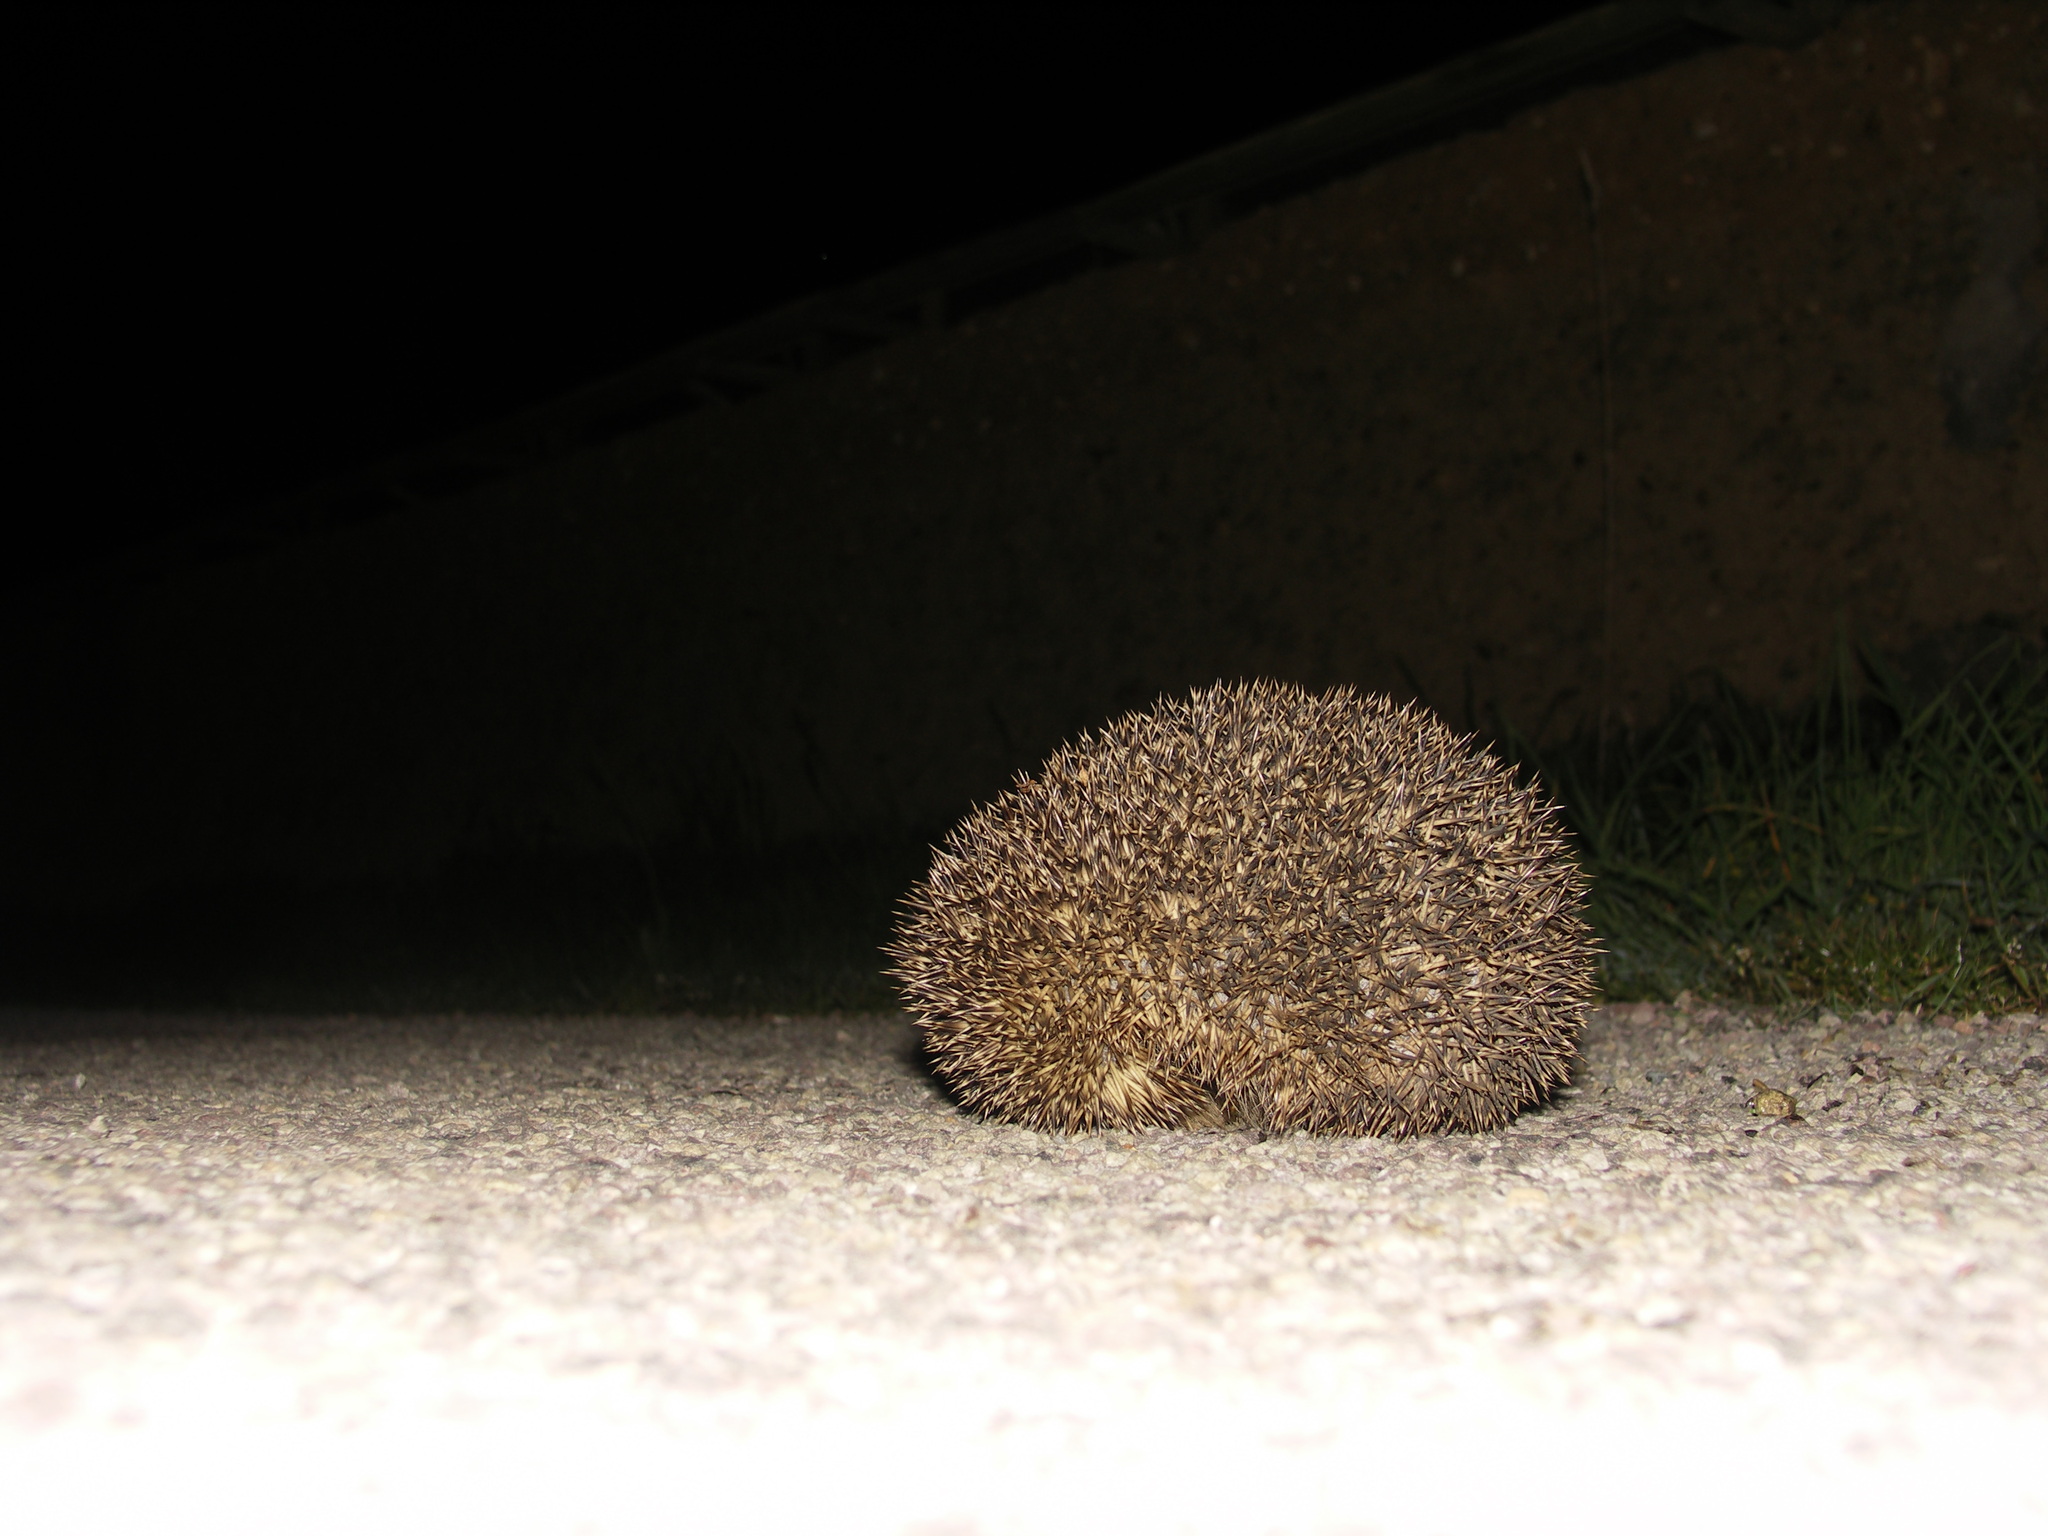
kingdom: Animalia
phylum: Chordata
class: Mammalia
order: Erinaceomorpha
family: Erinaceidae
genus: Erinaceus
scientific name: Erinaceus europaeus
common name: West european hedgehog
